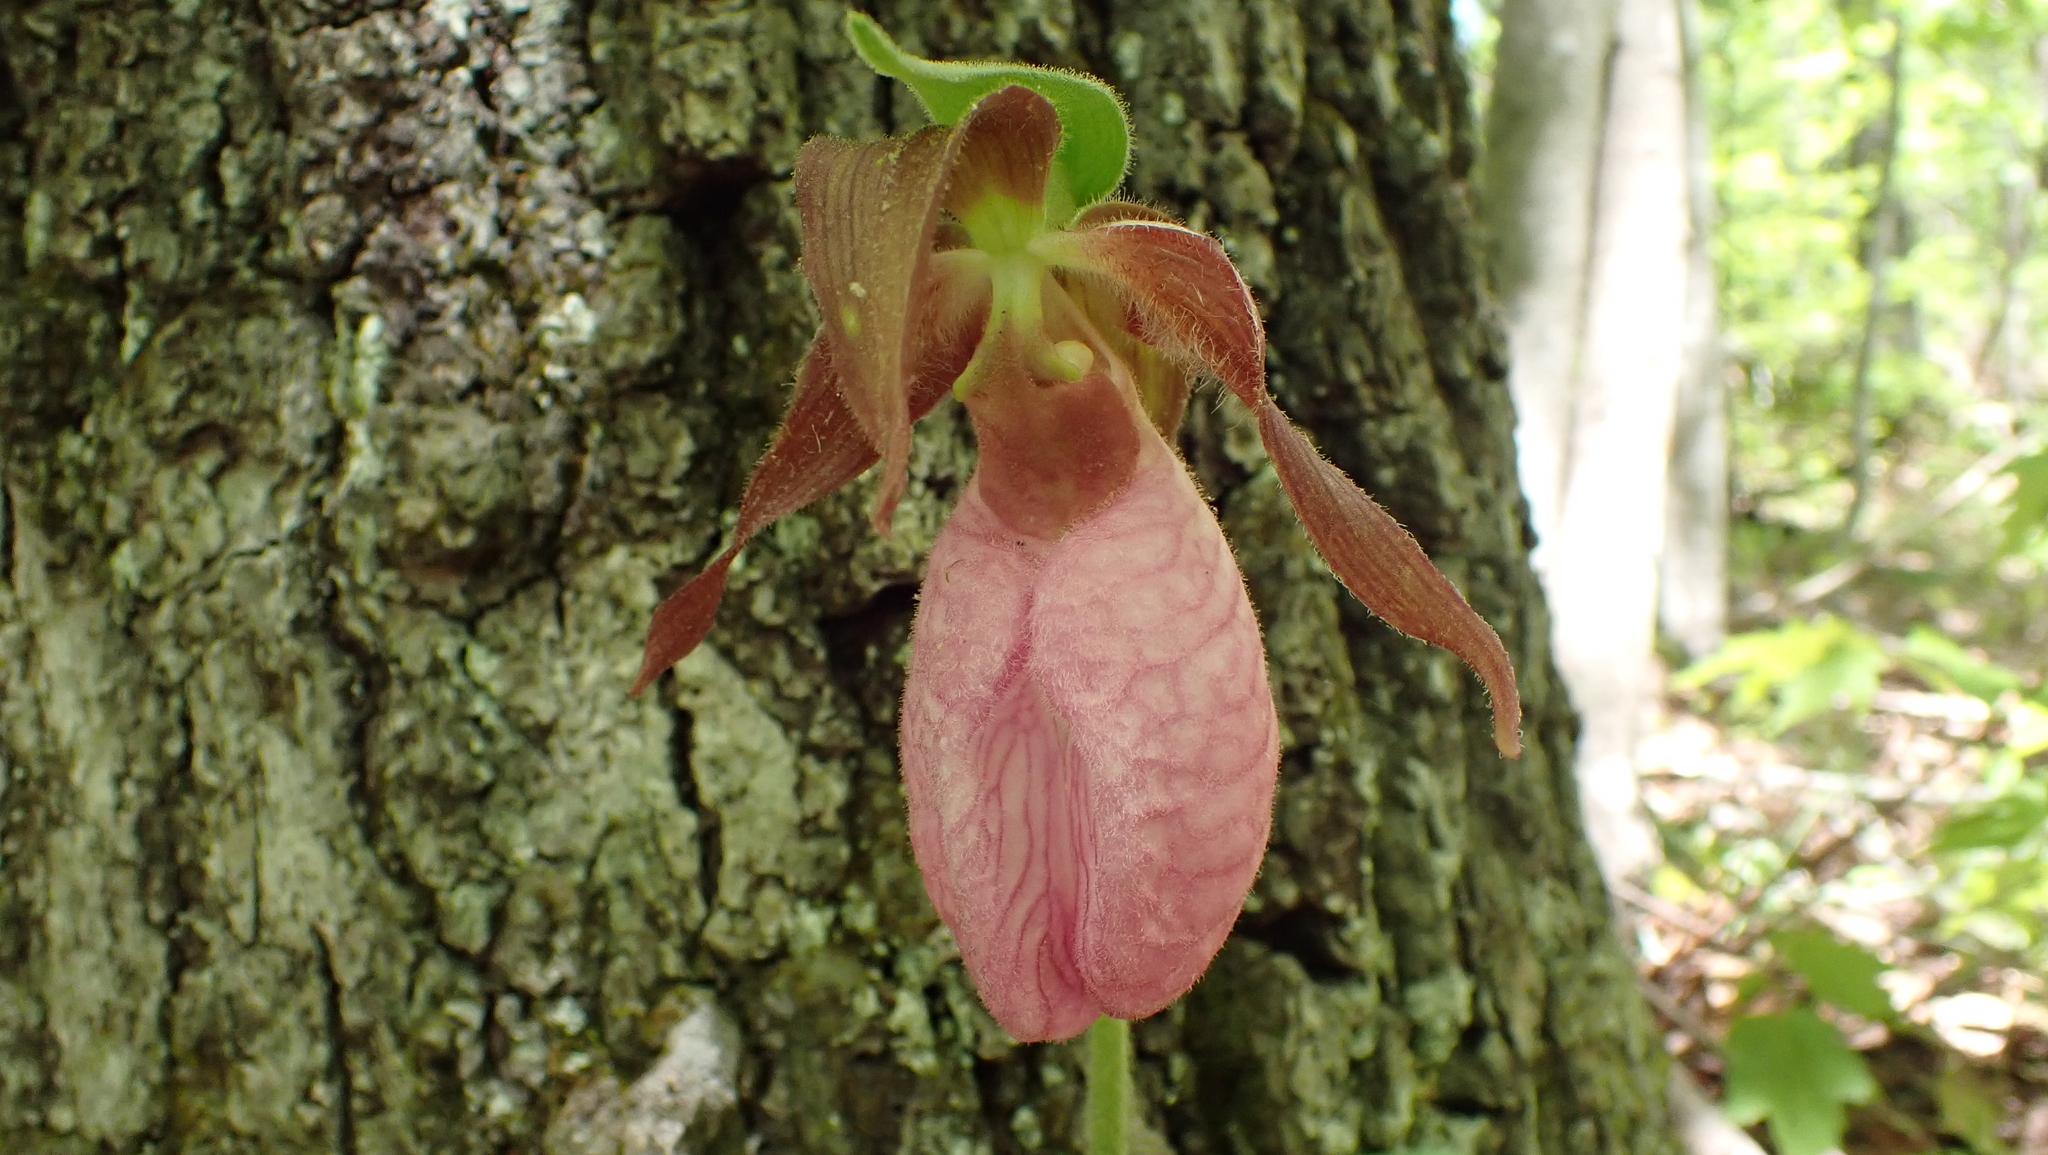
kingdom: Plantae
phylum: Tracheophyta
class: Liliopsida
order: Asparagales
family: Orchidaceae
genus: Cypripedium
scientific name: Cypripedium acaule
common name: Pink lady's-slipper
